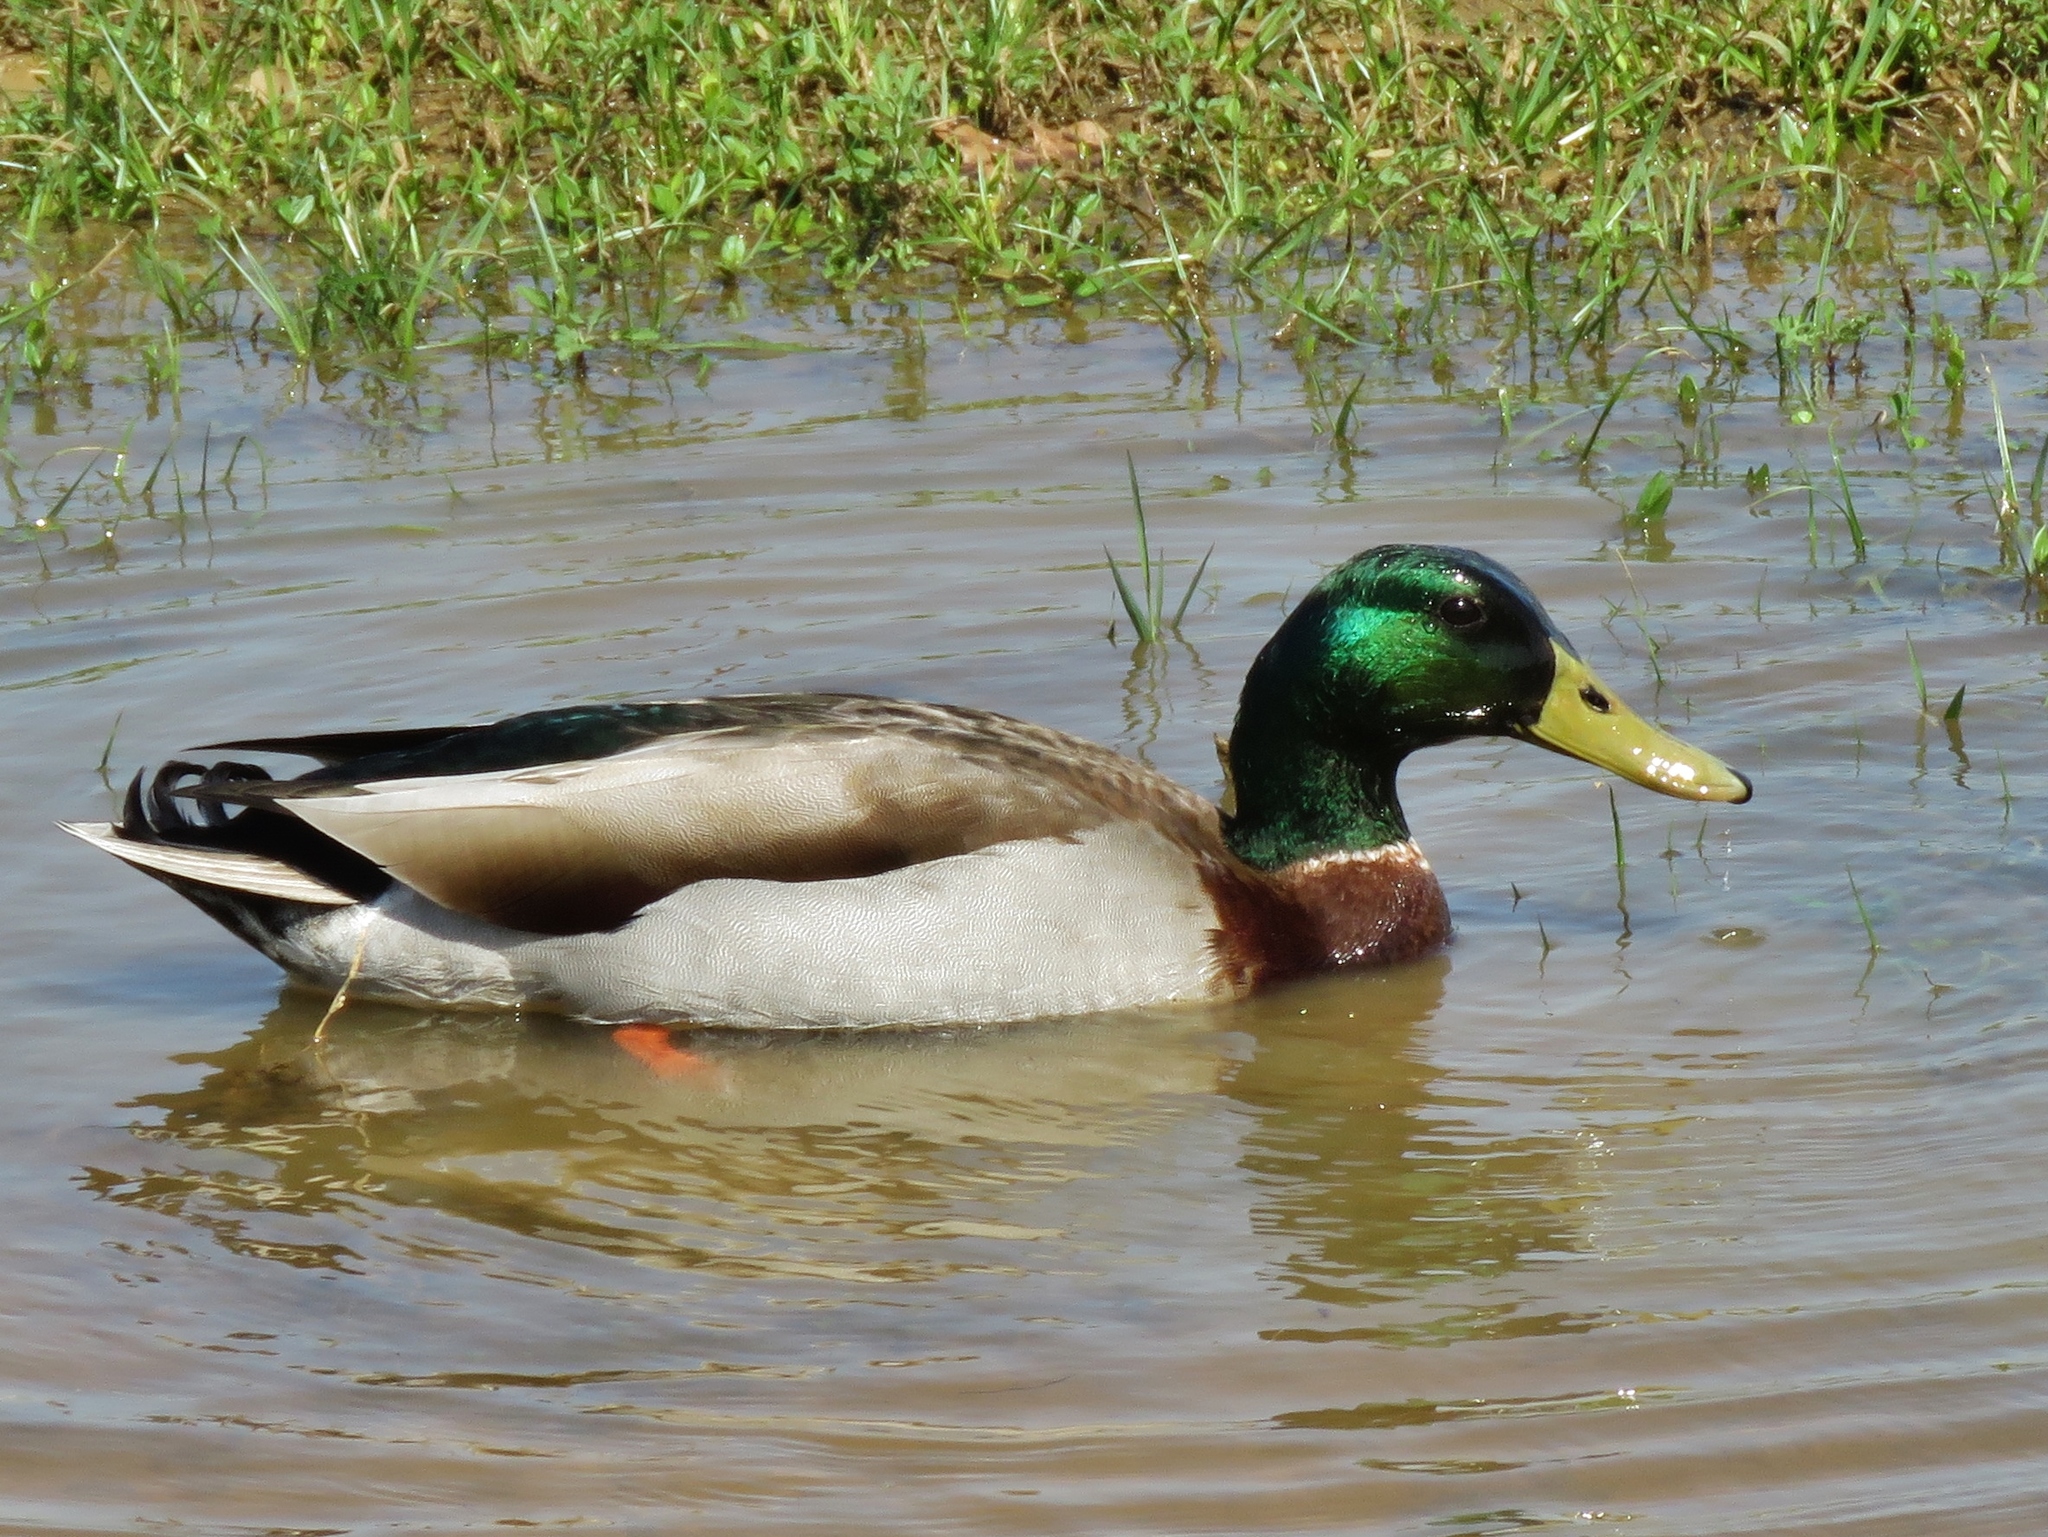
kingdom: Animalia
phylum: Chordata
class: Aves
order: Anseriformes
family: Anatidae
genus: Anas
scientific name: Anas platyrhynchos
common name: Mallard
